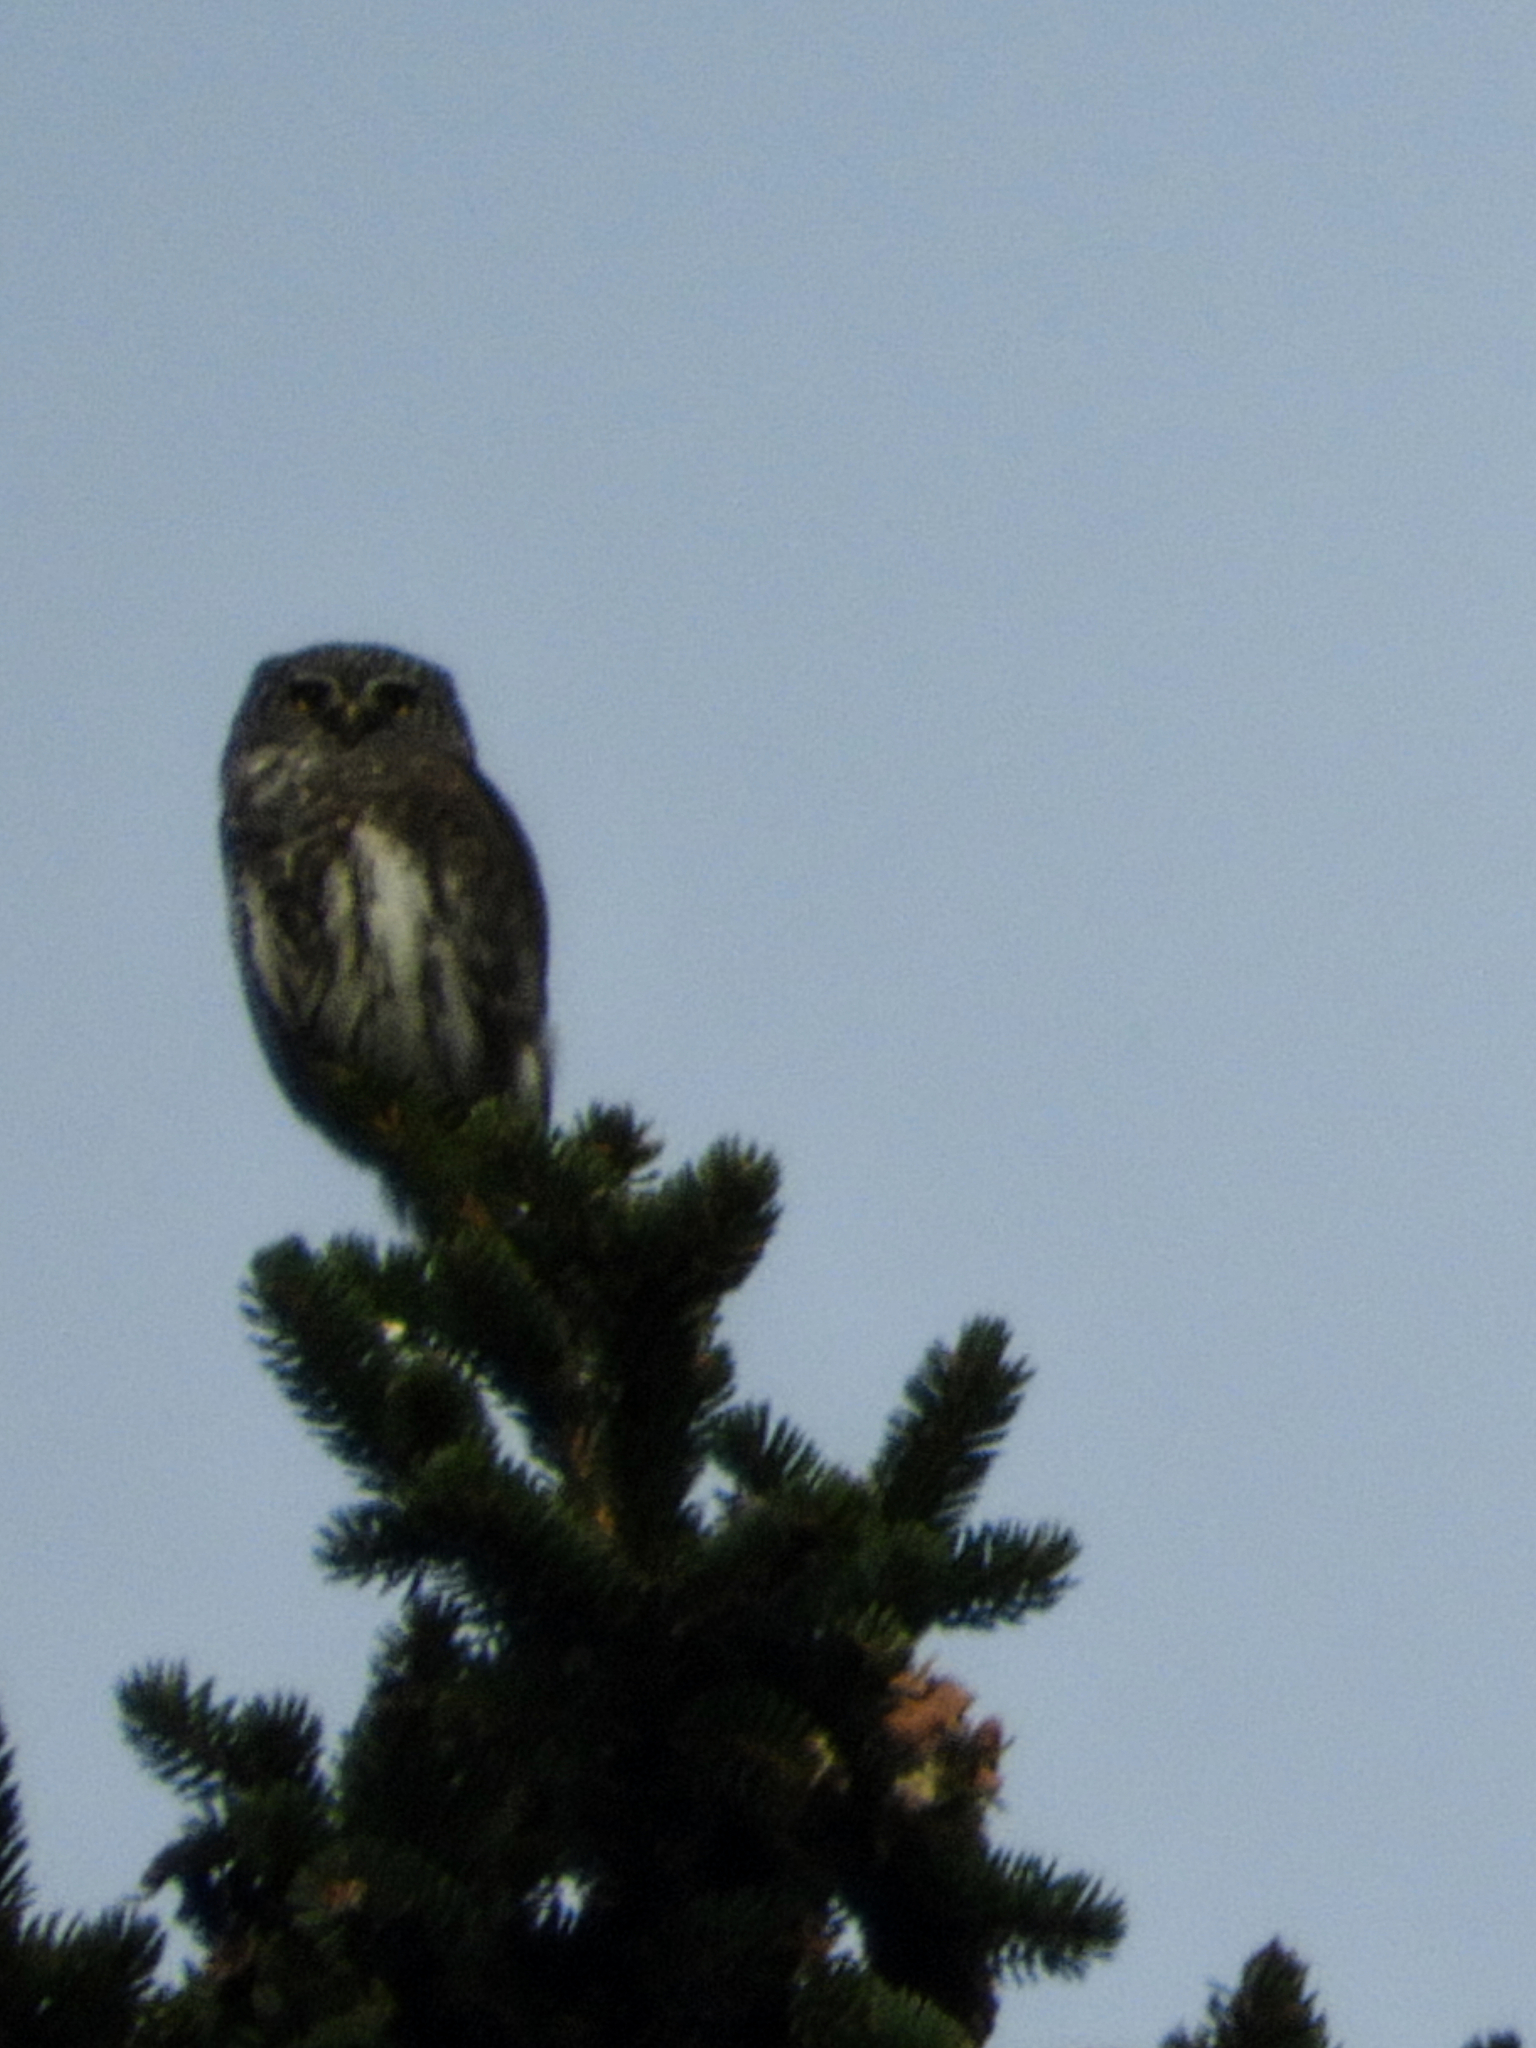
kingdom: Animalia
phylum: Chordata
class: Aves
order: Strigiformes
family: Strigidae
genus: Glaucidium
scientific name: Glaucidium passerinum
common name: Eurasian pygmy owl
